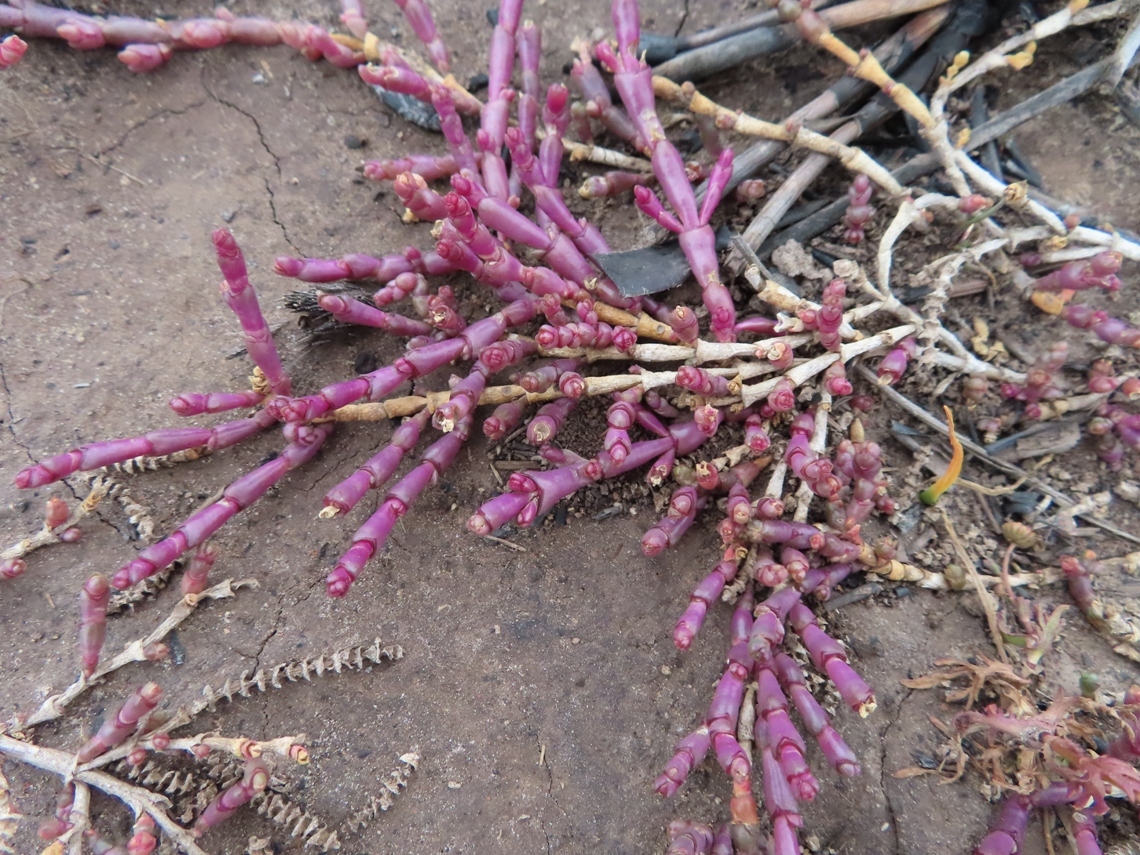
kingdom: Plantae
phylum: Tracheophyta
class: Magnoliopsida
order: Caryophyllales
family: Amaranthaceae
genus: Salicornia
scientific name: Salicornia natalensis
